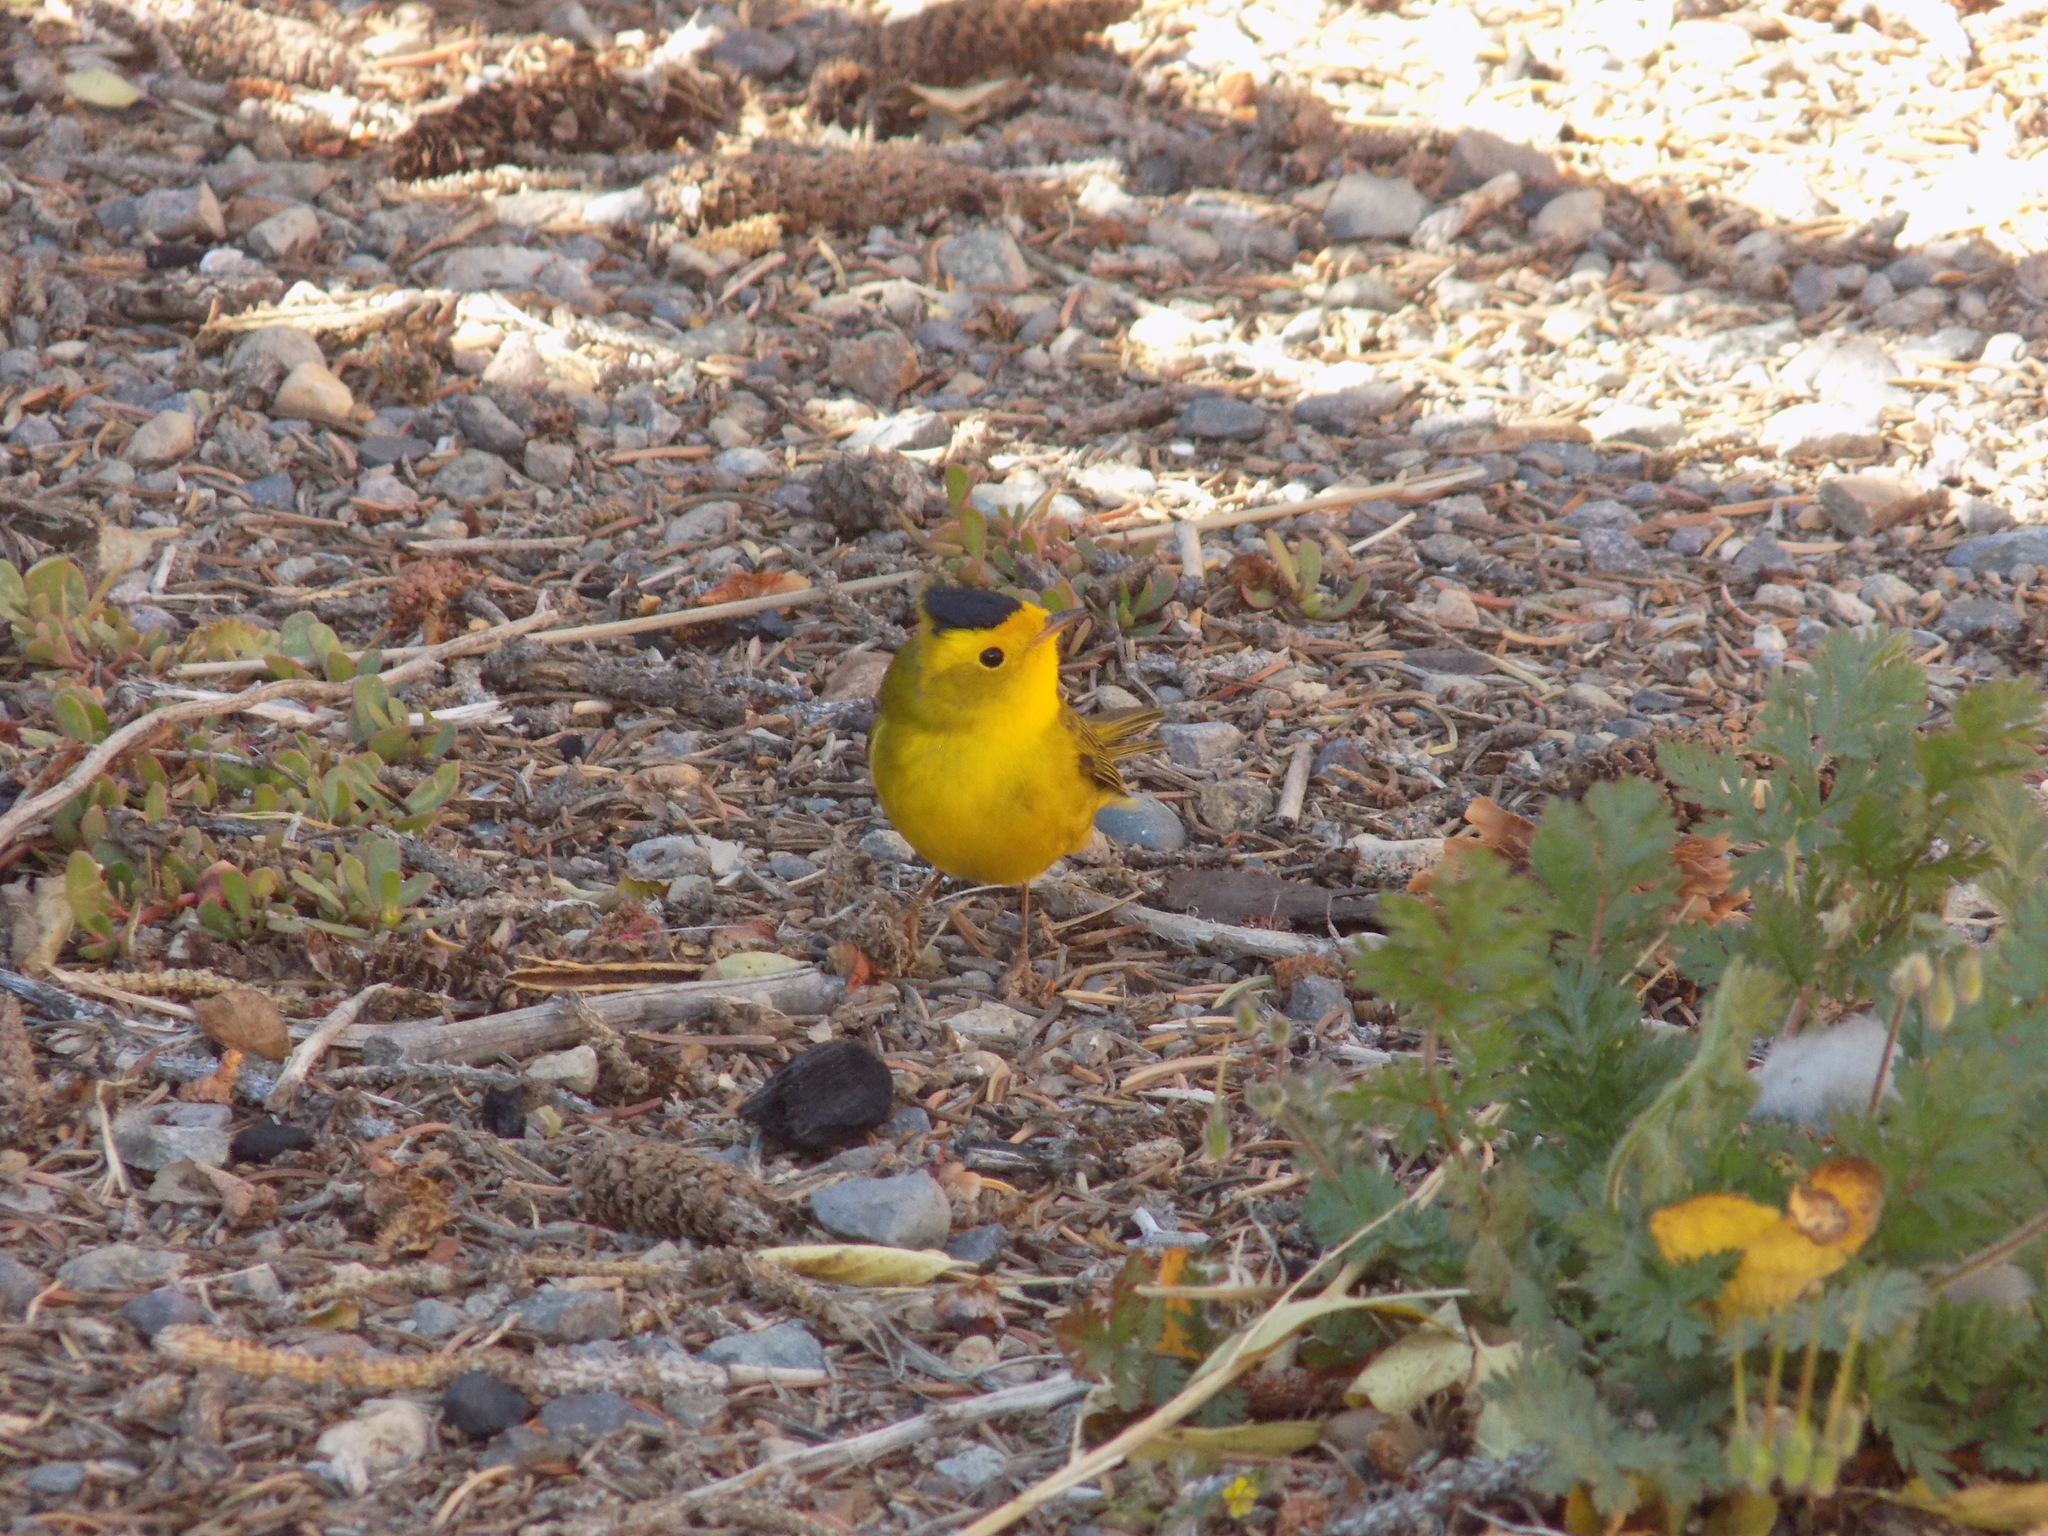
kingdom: Animalia
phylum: Chordata
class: Aves
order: Passeriformes
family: Parulidae
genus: Cardellina
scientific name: Cardellina pusilla
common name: Wilson's warbler
